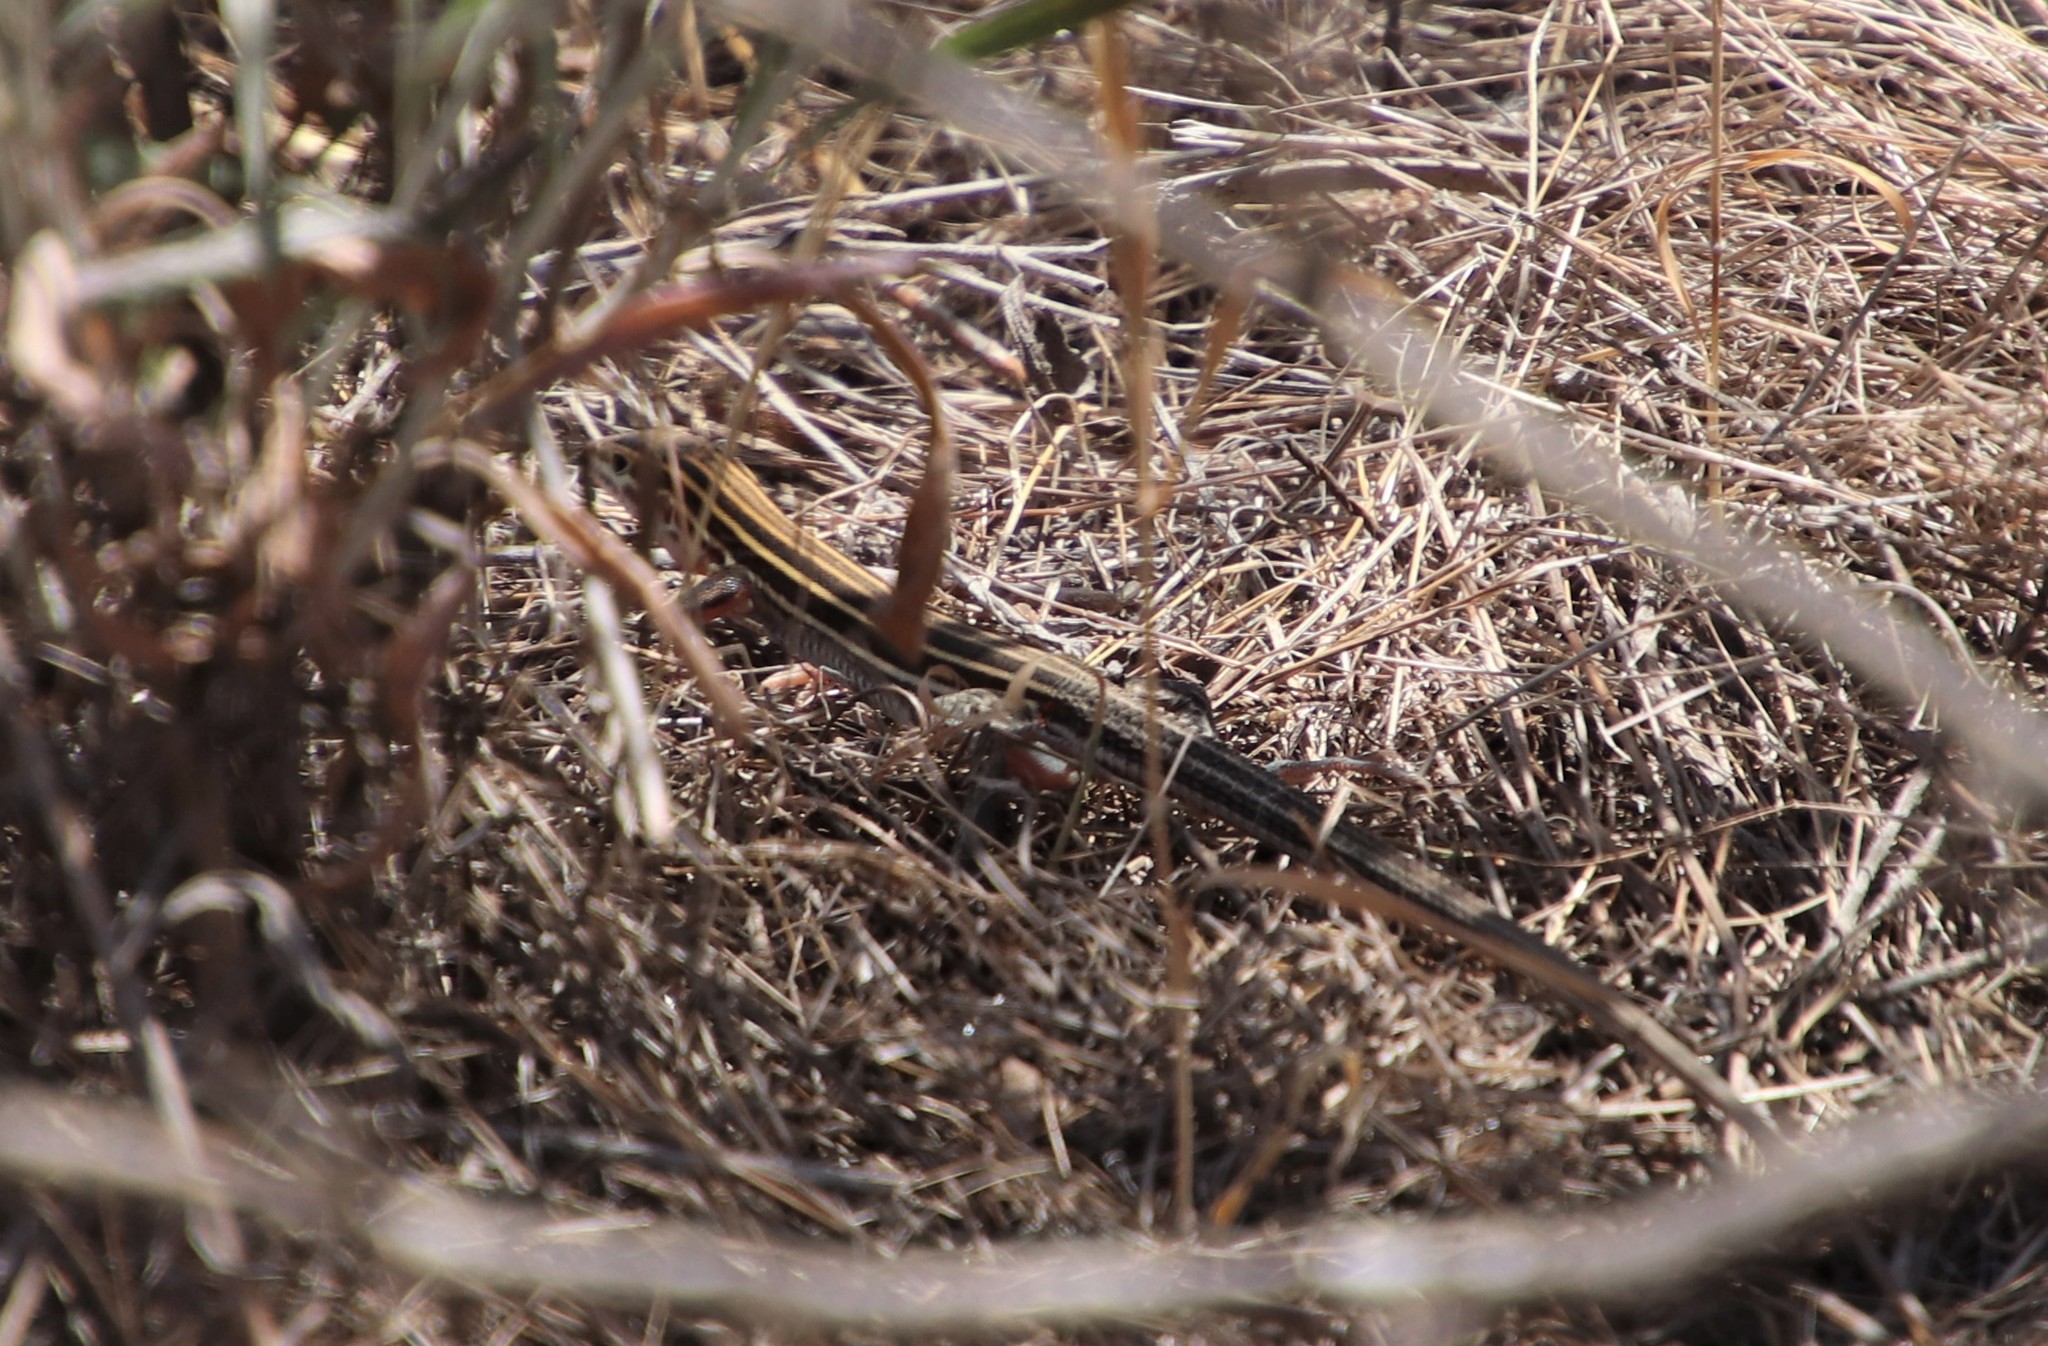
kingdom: Animalia
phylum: Chordata
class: Squamata
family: Teiidae
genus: Aspidoscelis
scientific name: Aspidoscelis hyperythrus
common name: Orange-throated race-runner
